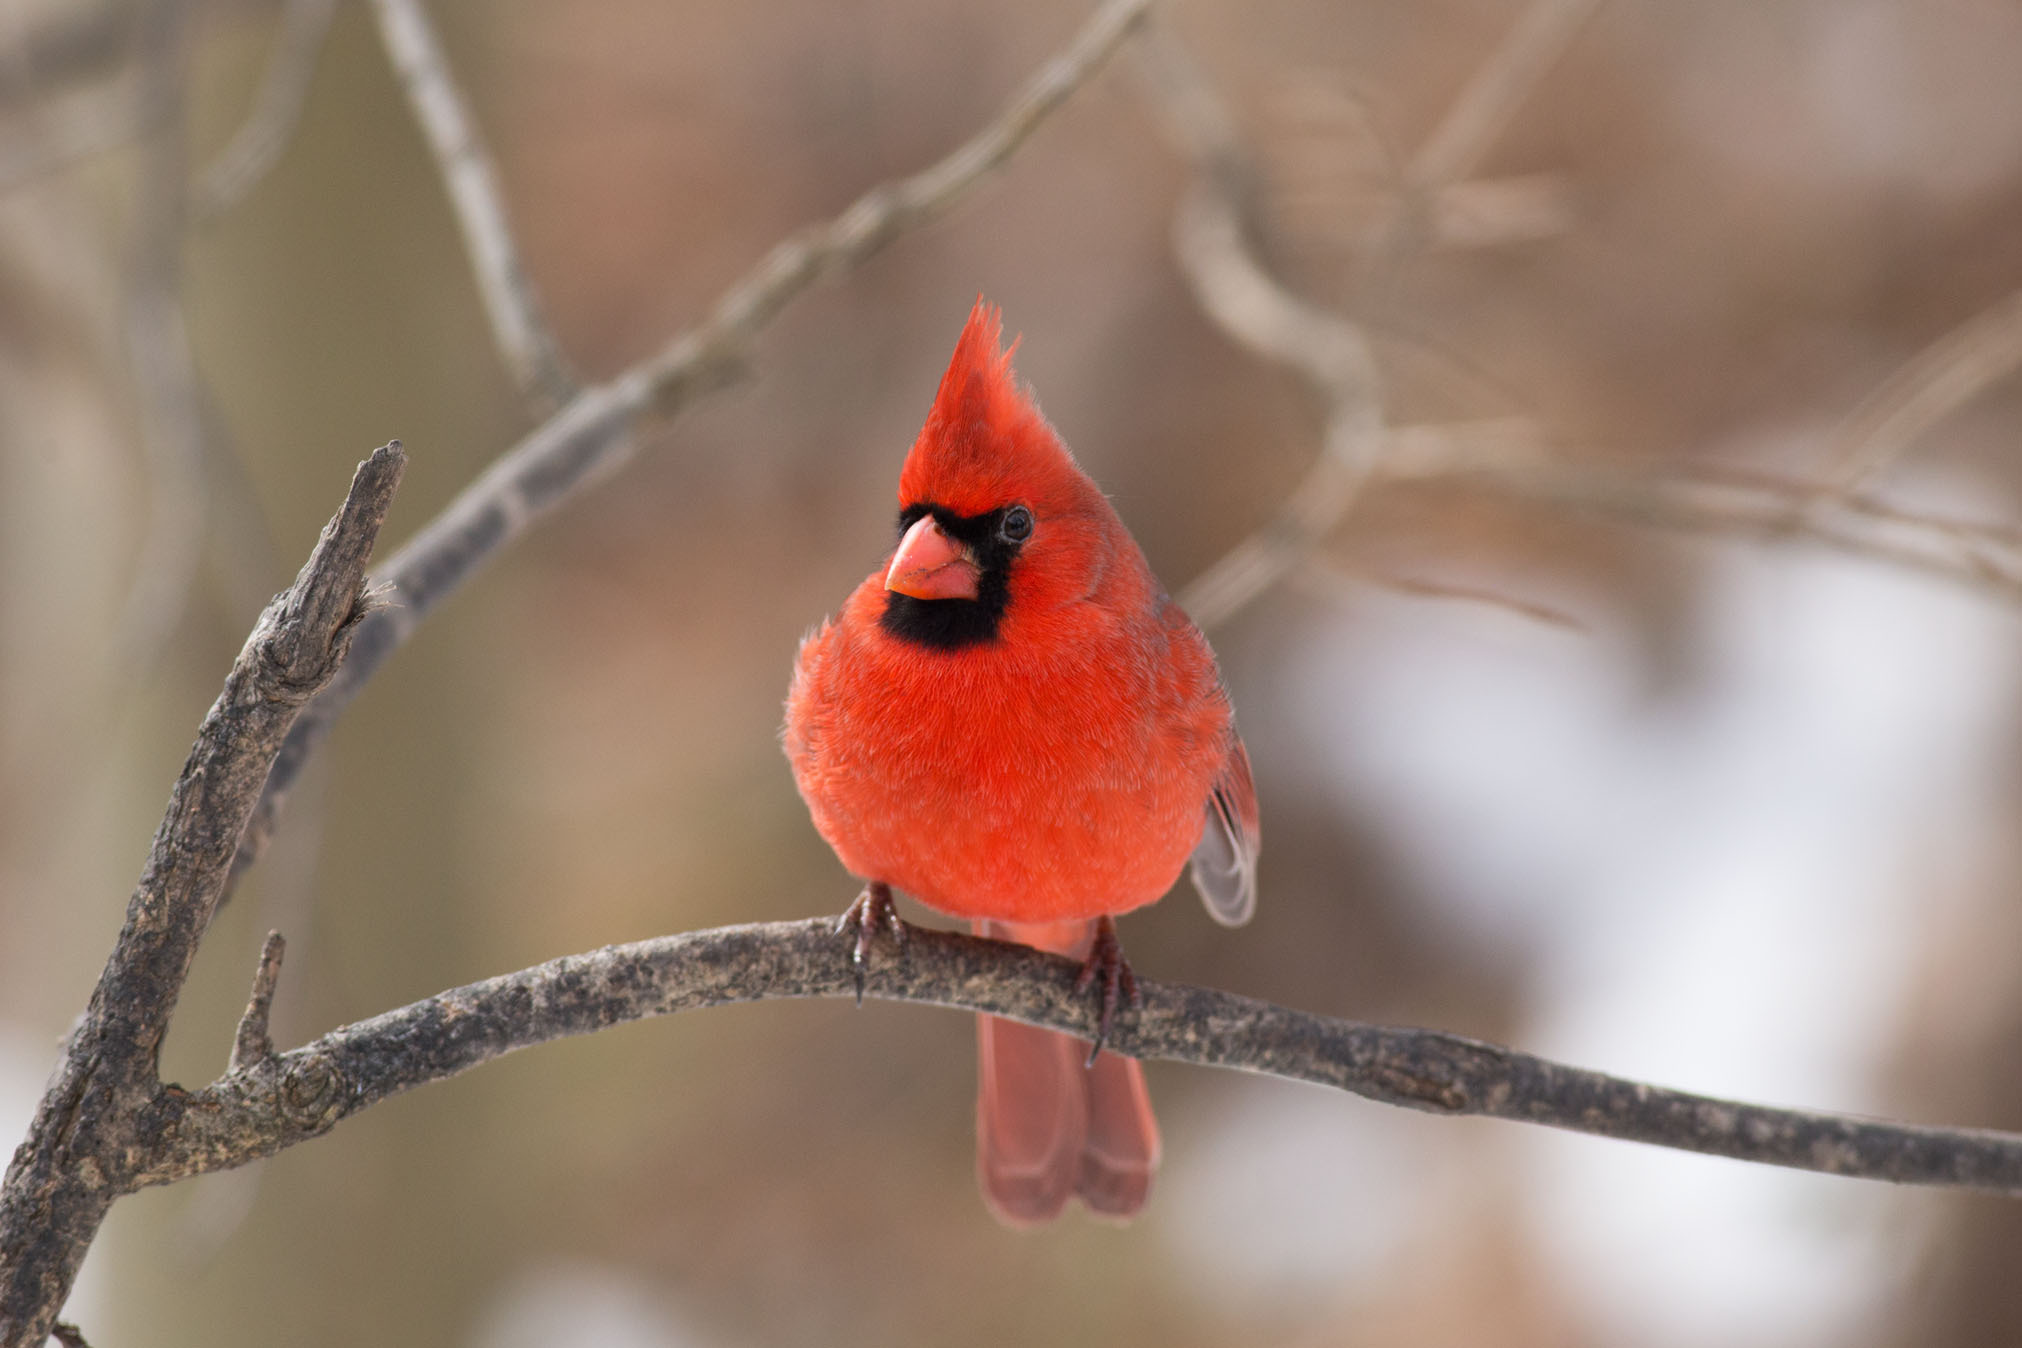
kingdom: Animalia
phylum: Chordata
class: Aves
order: Passeriformes
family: Cardinalidae
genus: Cardinalis
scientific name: Cardinalis cardinalis
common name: Northern cardinal
